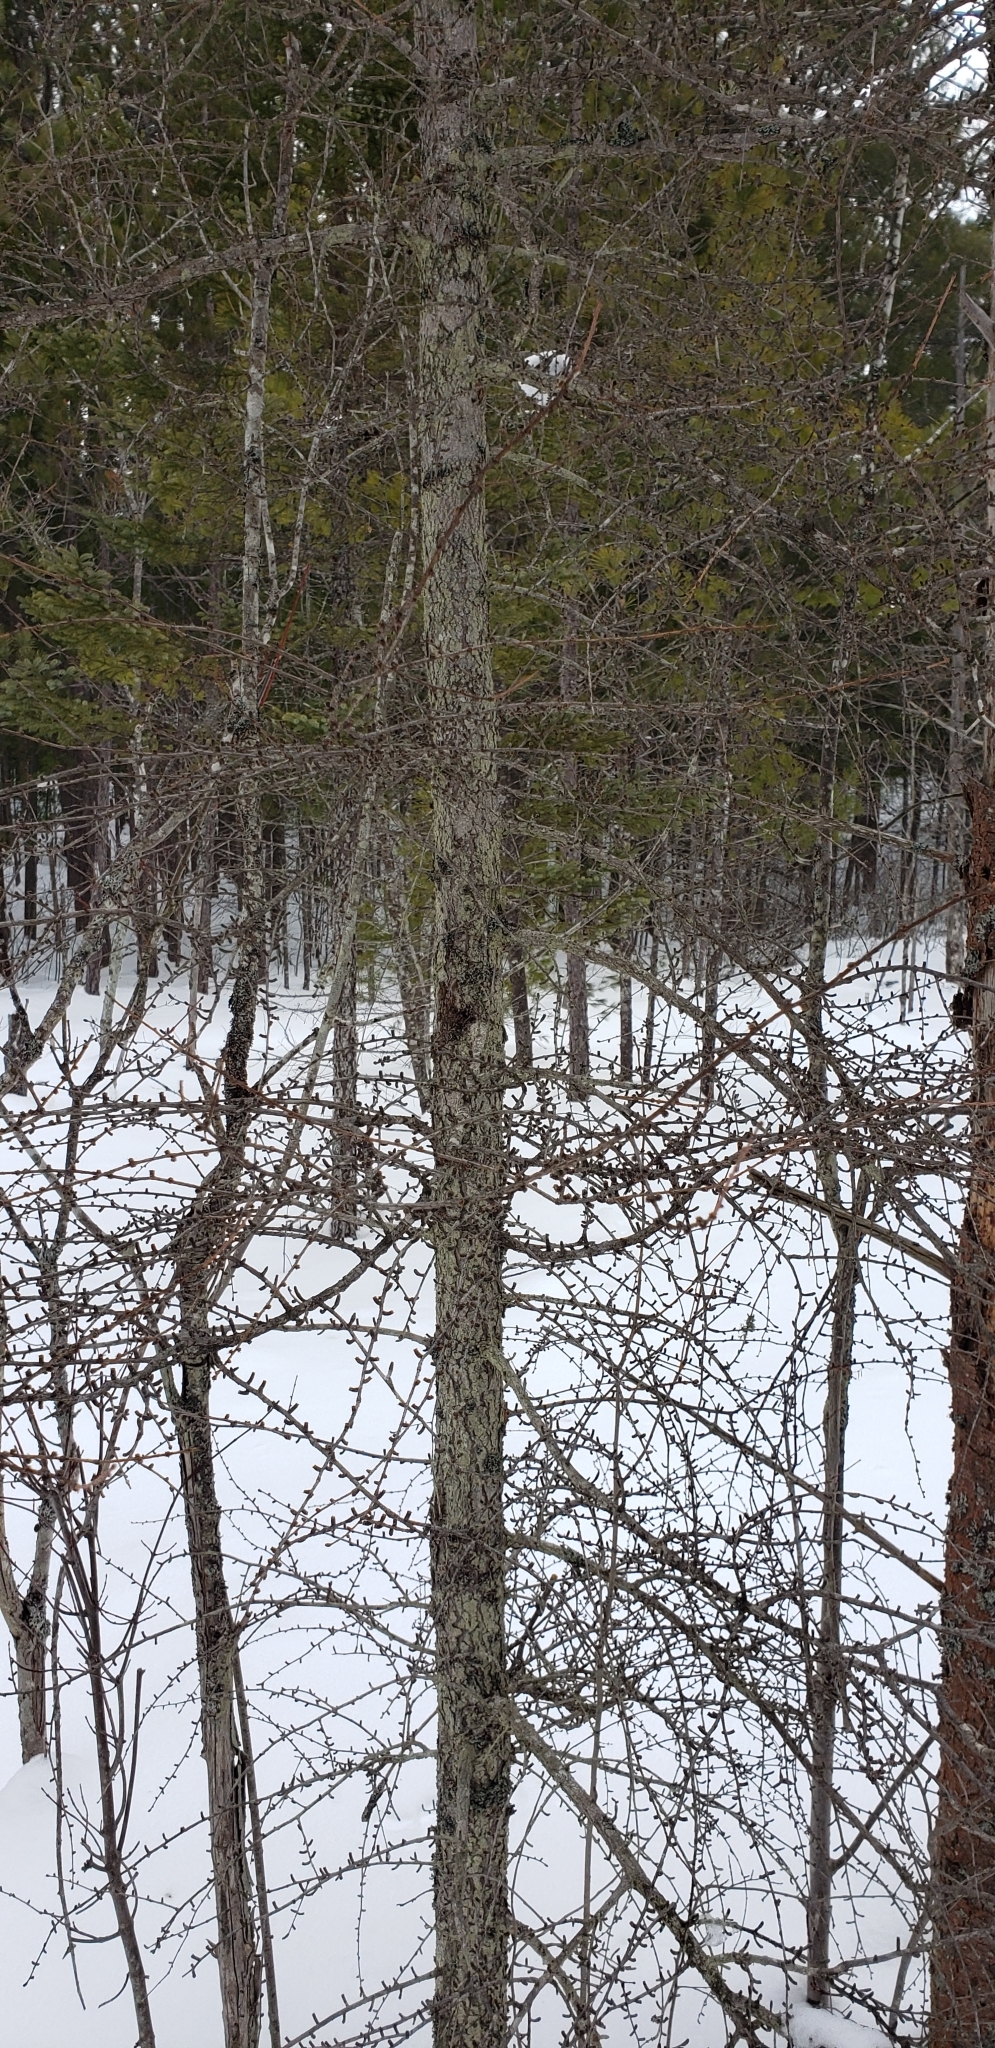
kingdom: Plantae
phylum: Tracheophyta
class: Pinopsida
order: Pinales
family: Pinaceae
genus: Larix
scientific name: Larix laricina
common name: American larch
